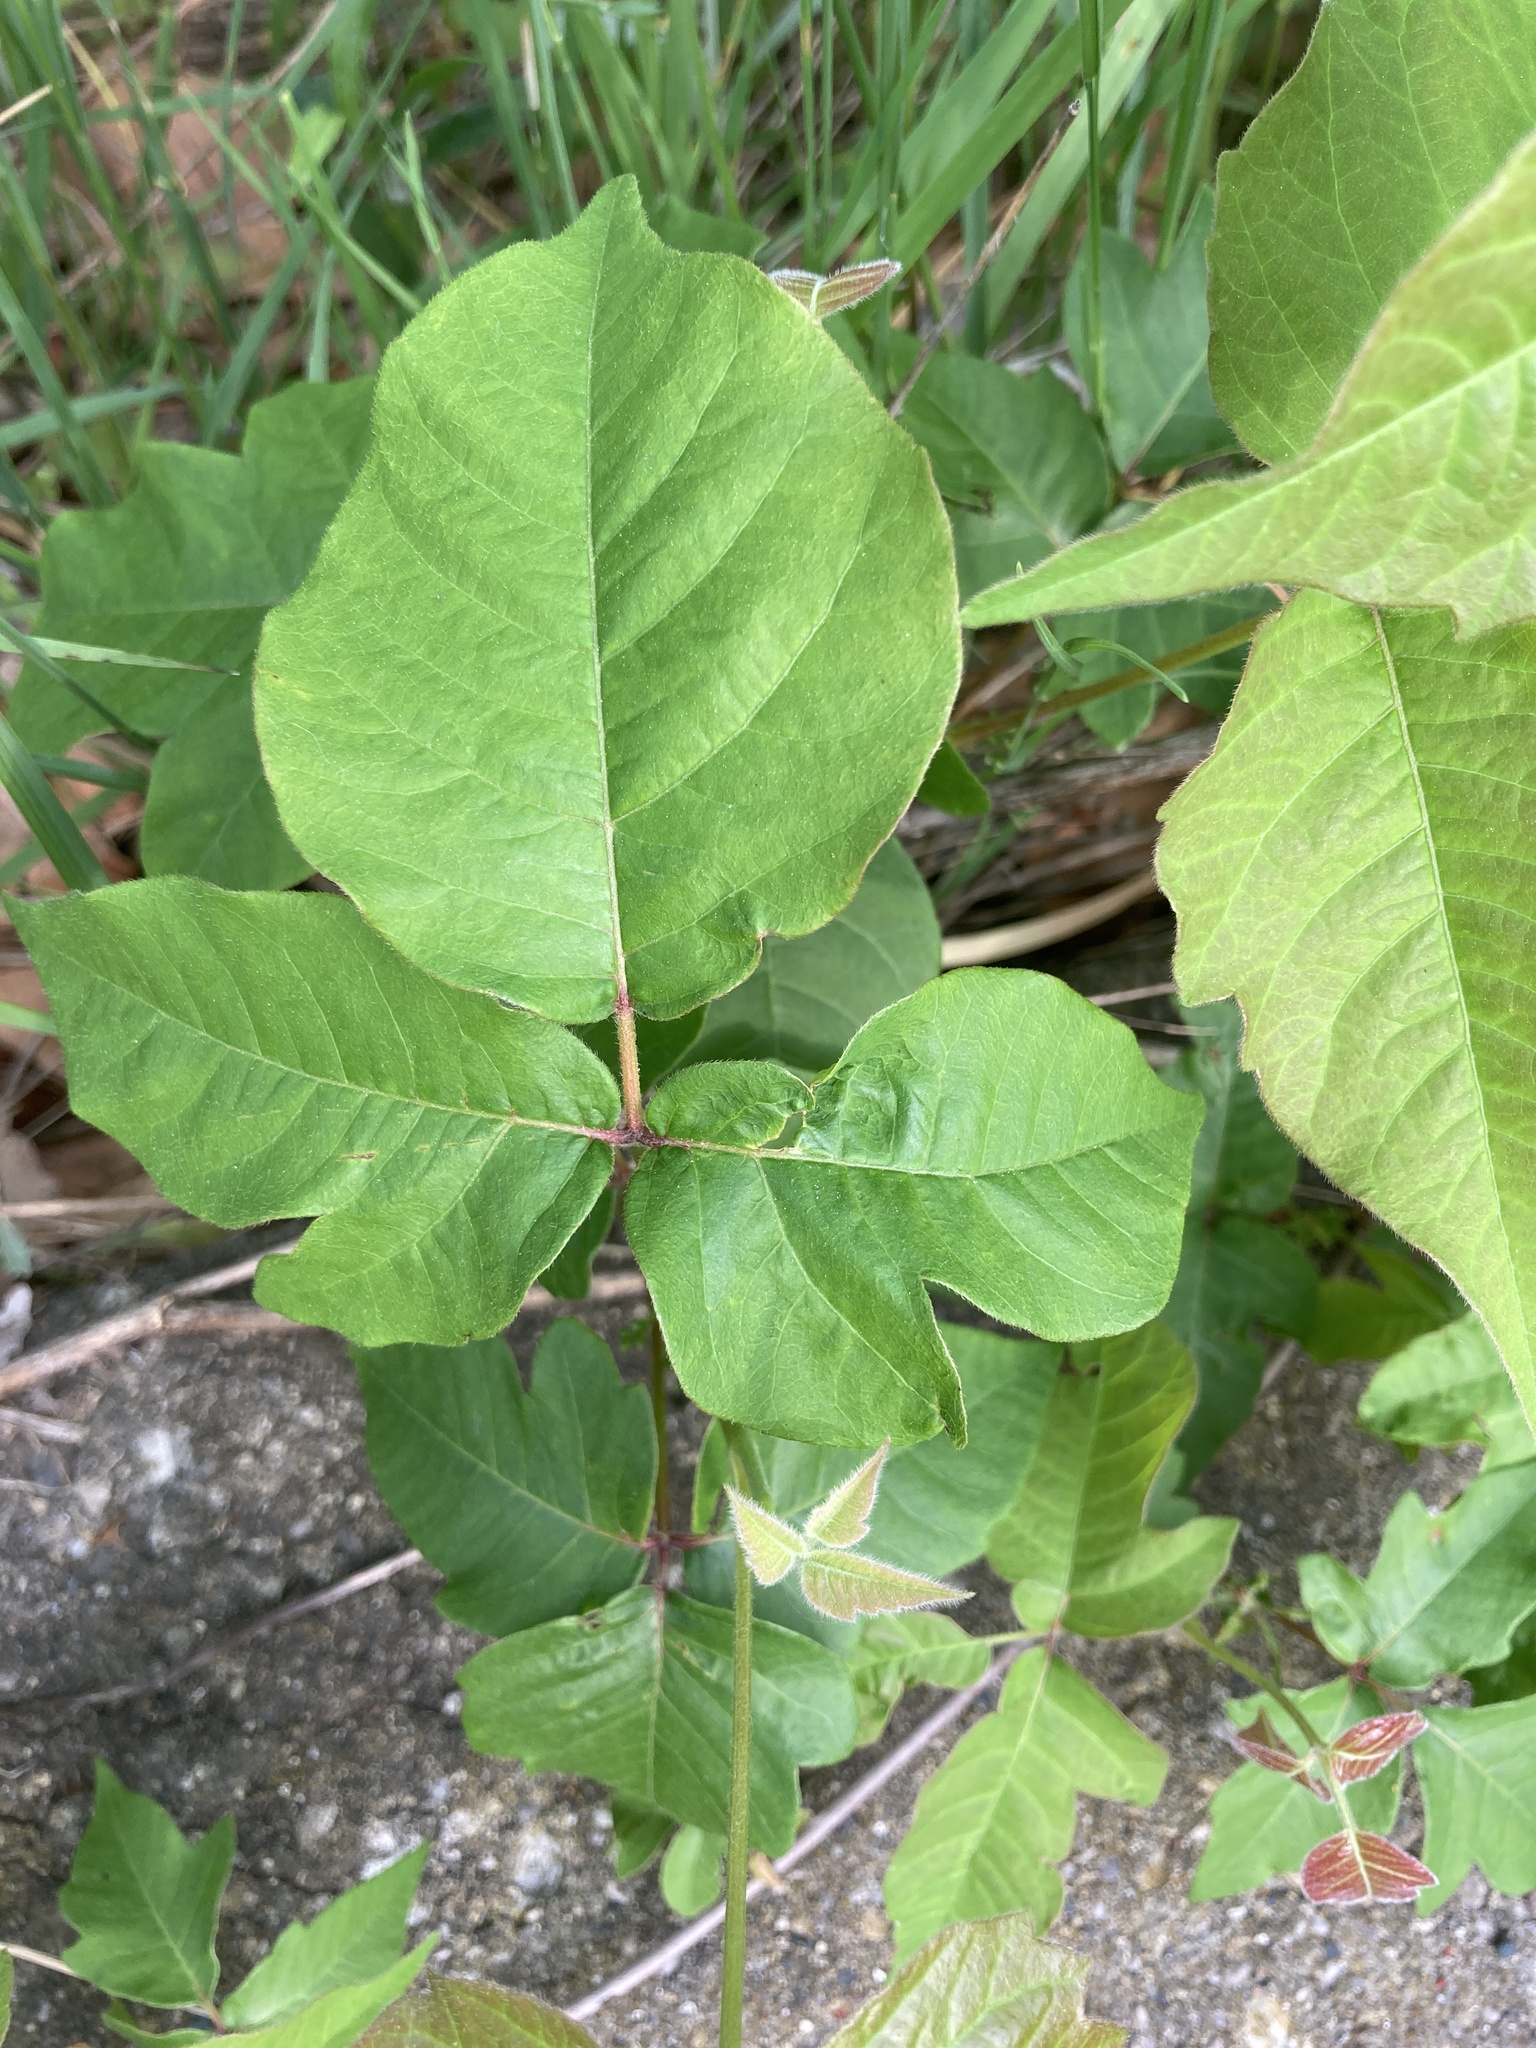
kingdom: Plantae
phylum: Tracheophyta
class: Magnoliopsida
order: Sapindales
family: Anacardiaceae
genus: Toxicodendron
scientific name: Toxicodendron radicans
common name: Poison ivy
